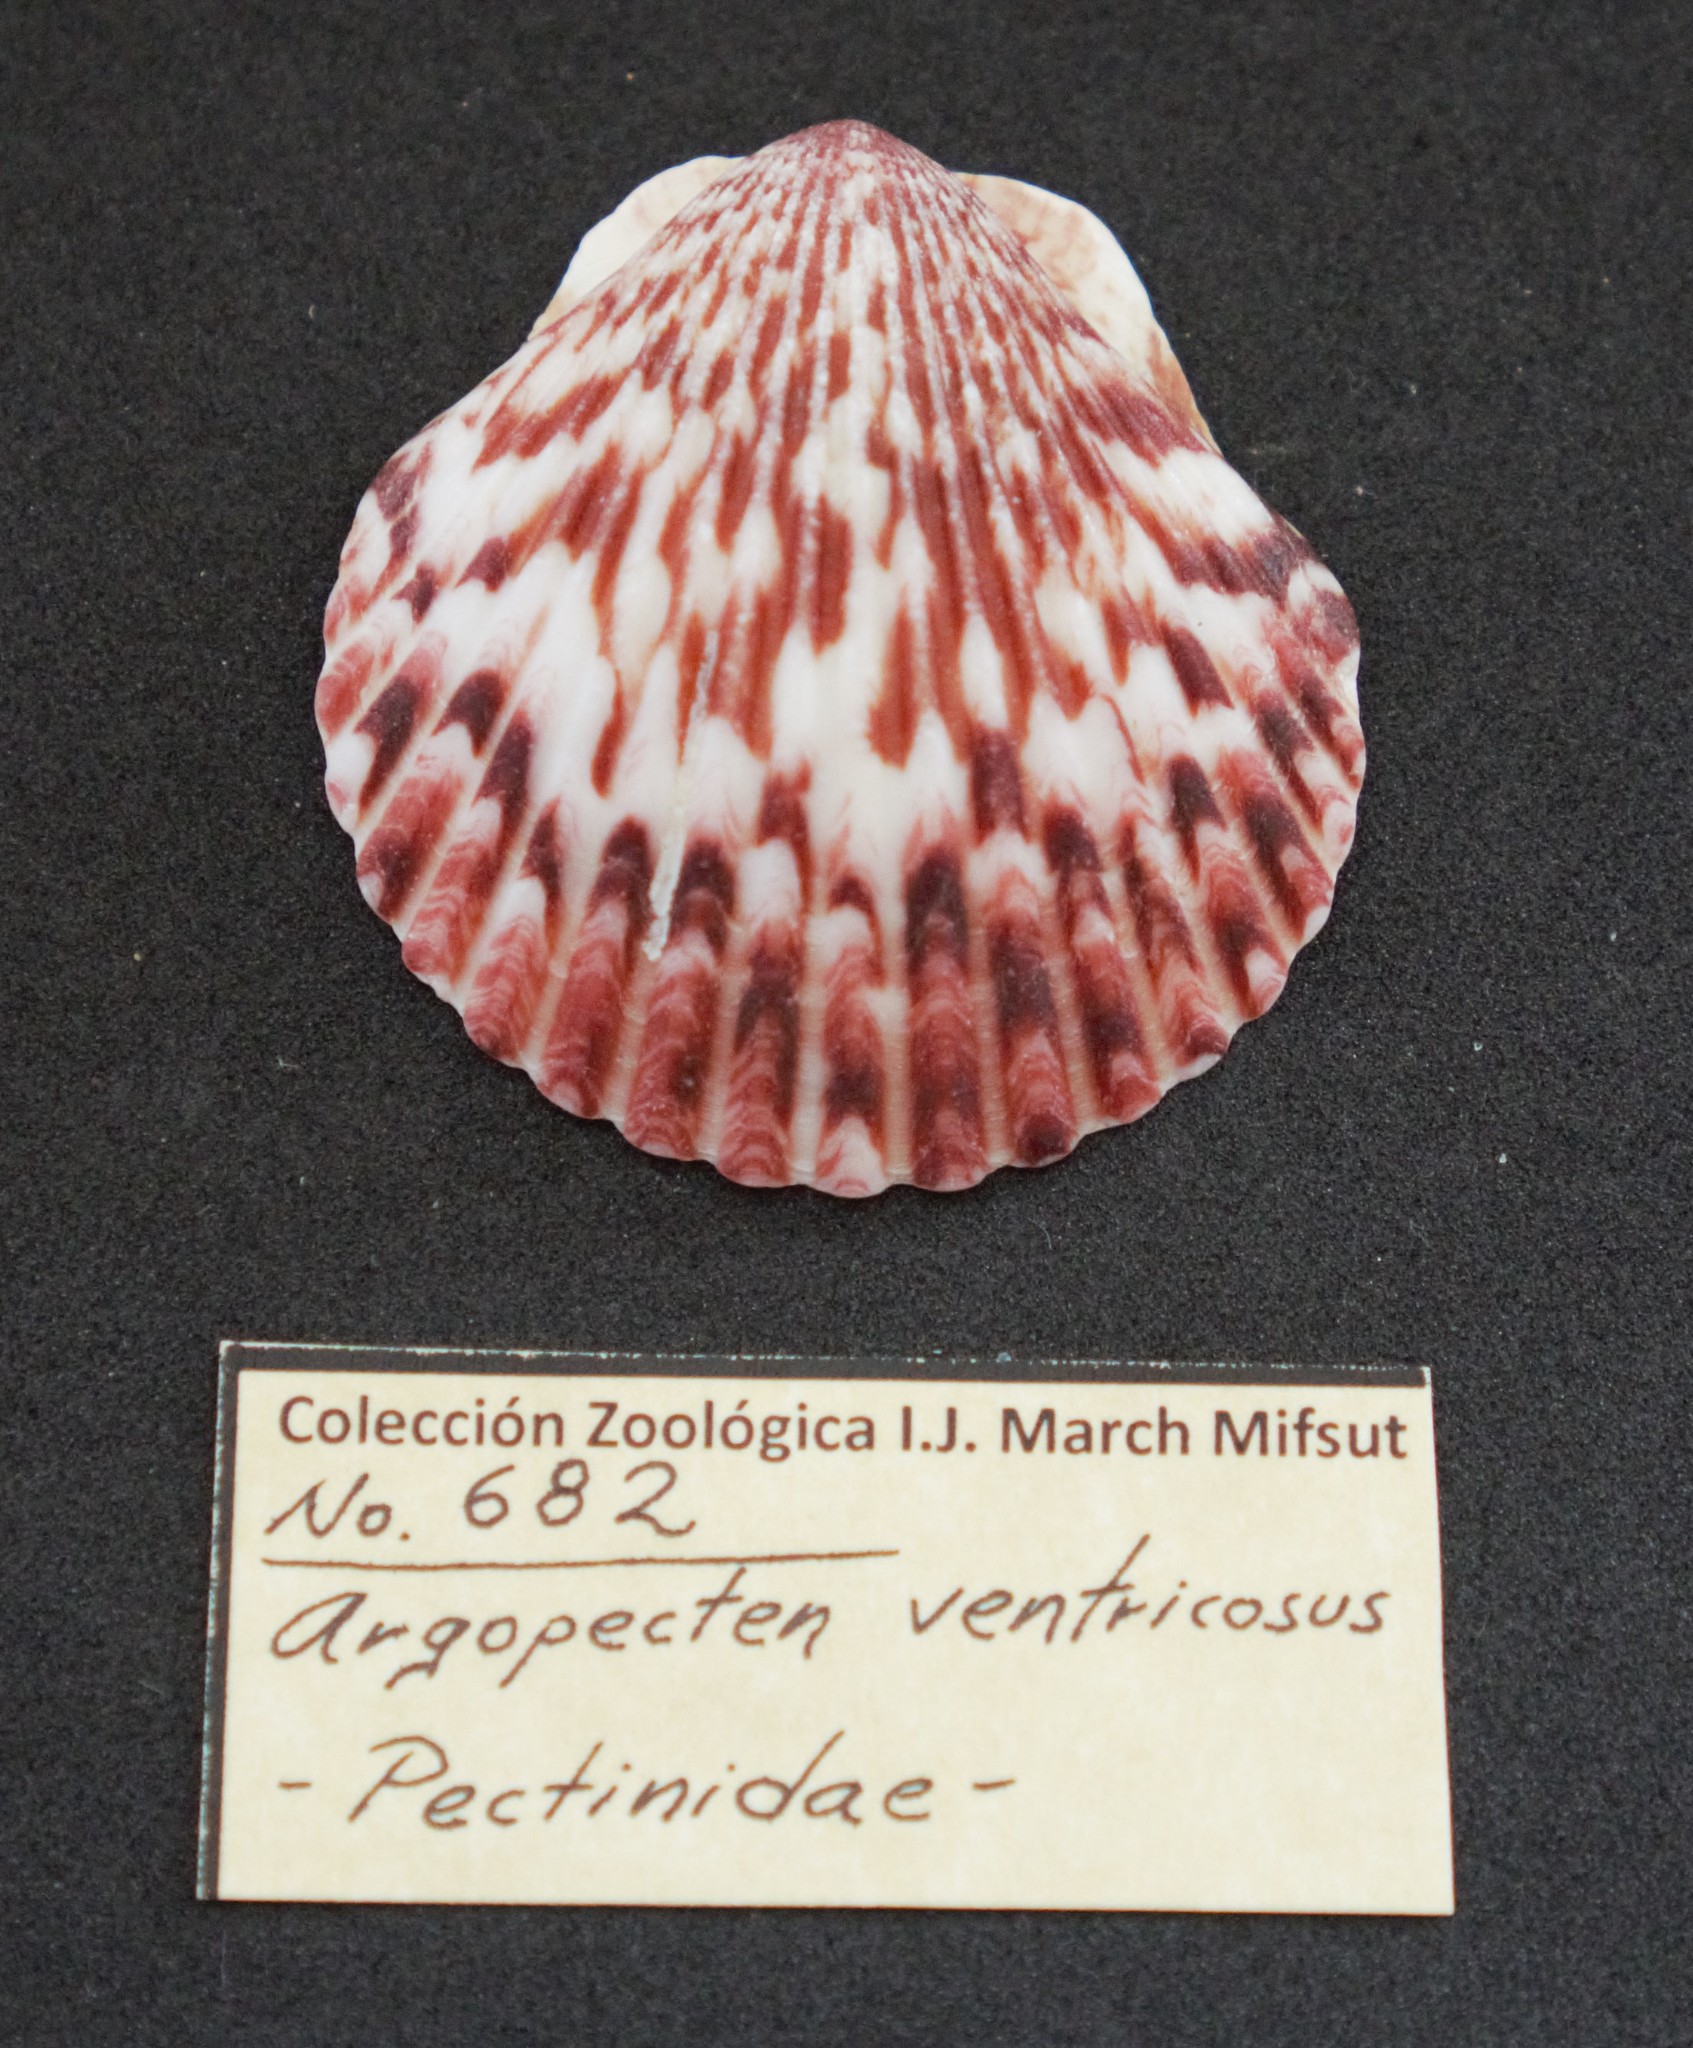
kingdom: Animalia
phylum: Mollusca
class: Bivalvia
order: Pectinida
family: Pectinidae
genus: Argopecten
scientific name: Argopecten ventricosus
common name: Catarina scallop
